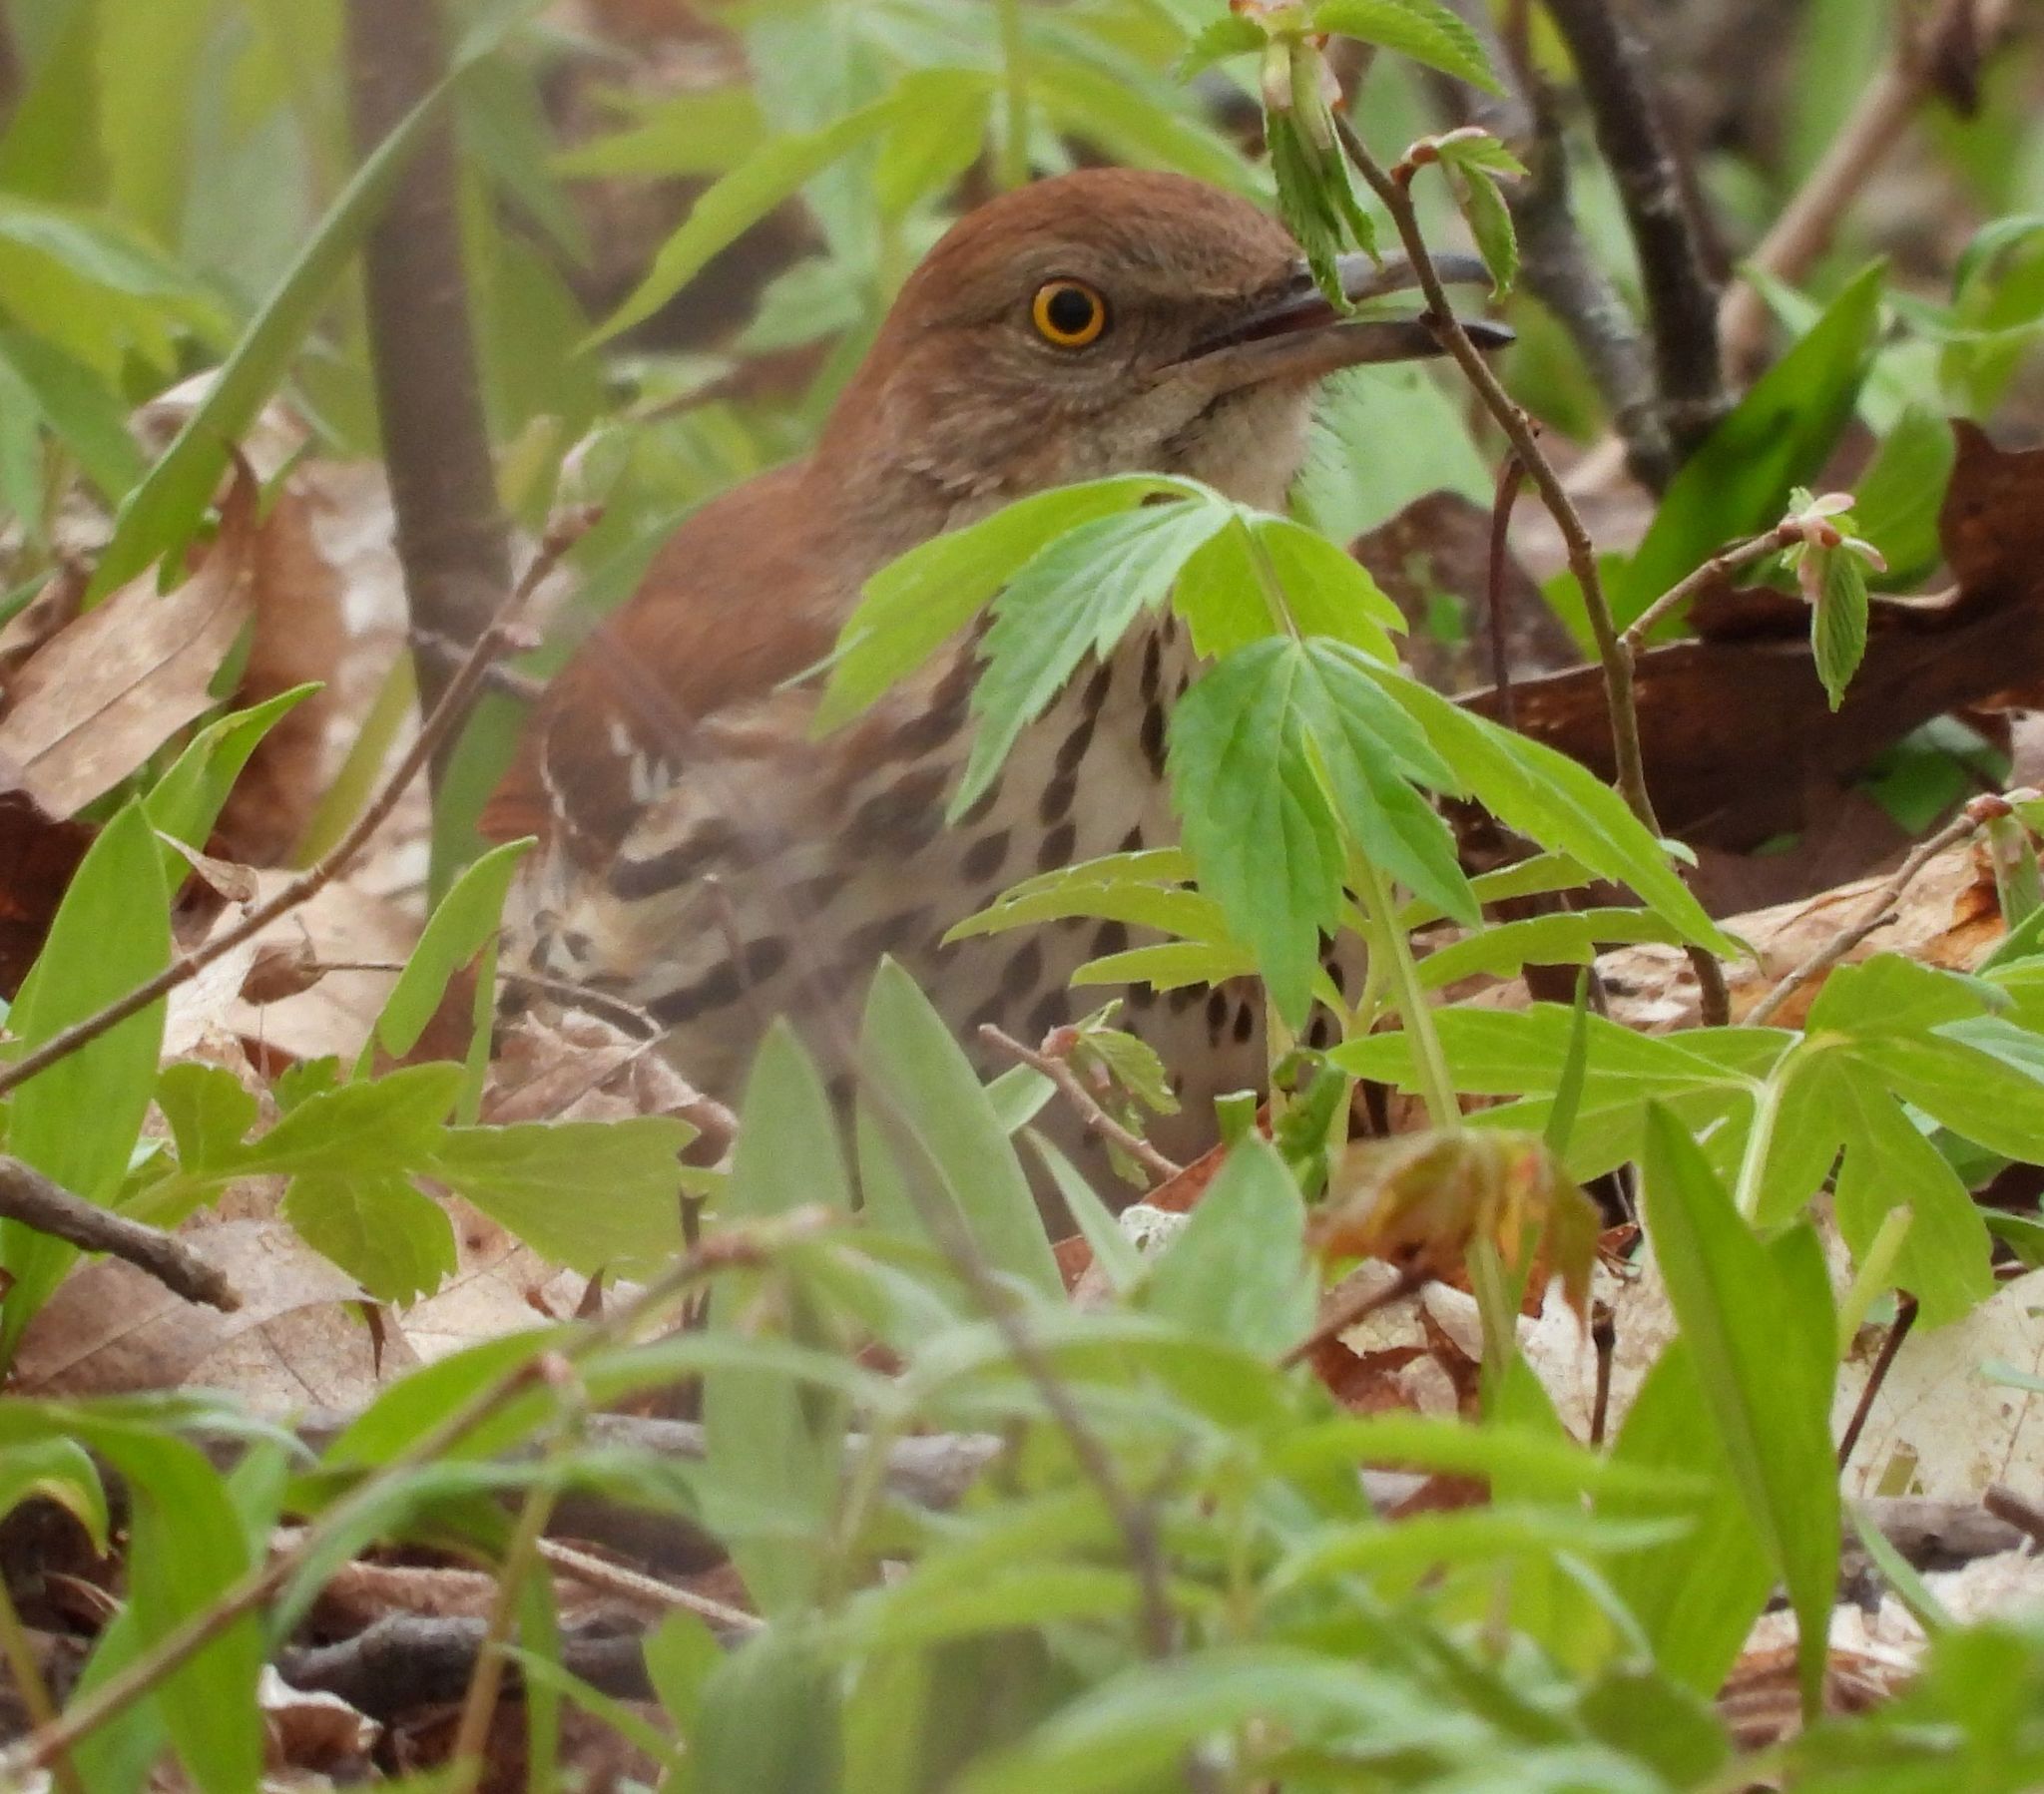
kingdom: Animalia
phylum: Chordata
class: Aves
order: Passeriformes
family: Mimidae
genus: Toxostoma
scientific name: Toxostoma rufum
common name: Brown thrasher
